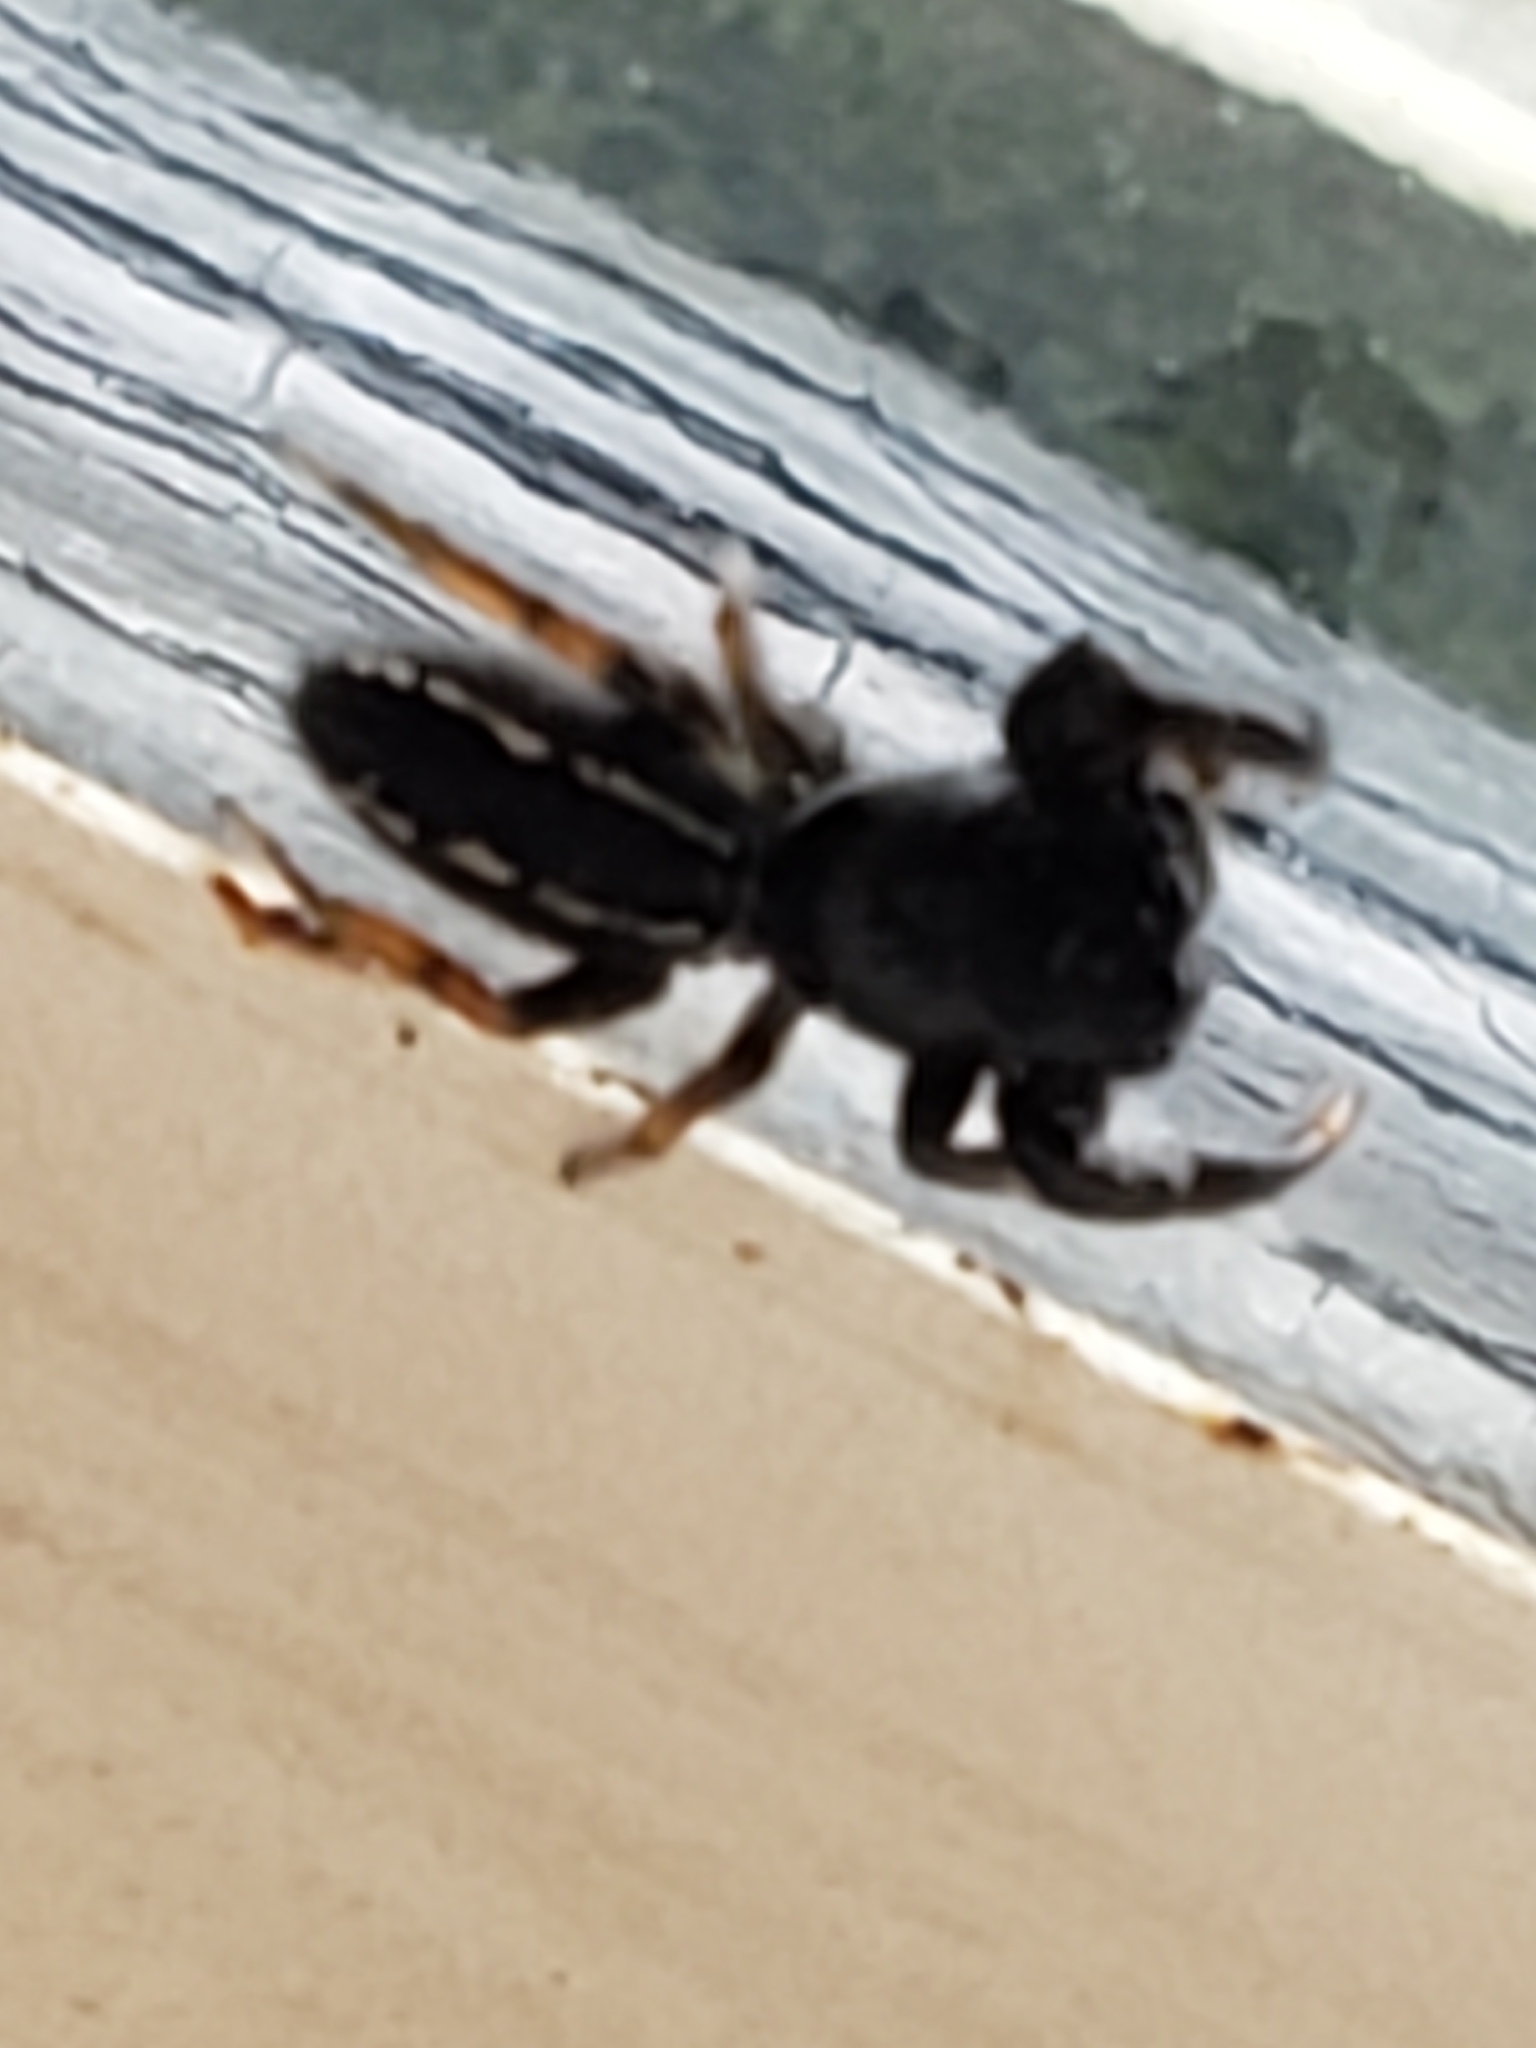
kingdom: Animalia
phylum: Arthropoda
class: Arachnida
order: Araneae
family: Salticidae
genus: Metacyrba
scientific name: Metacyrba taeniola
